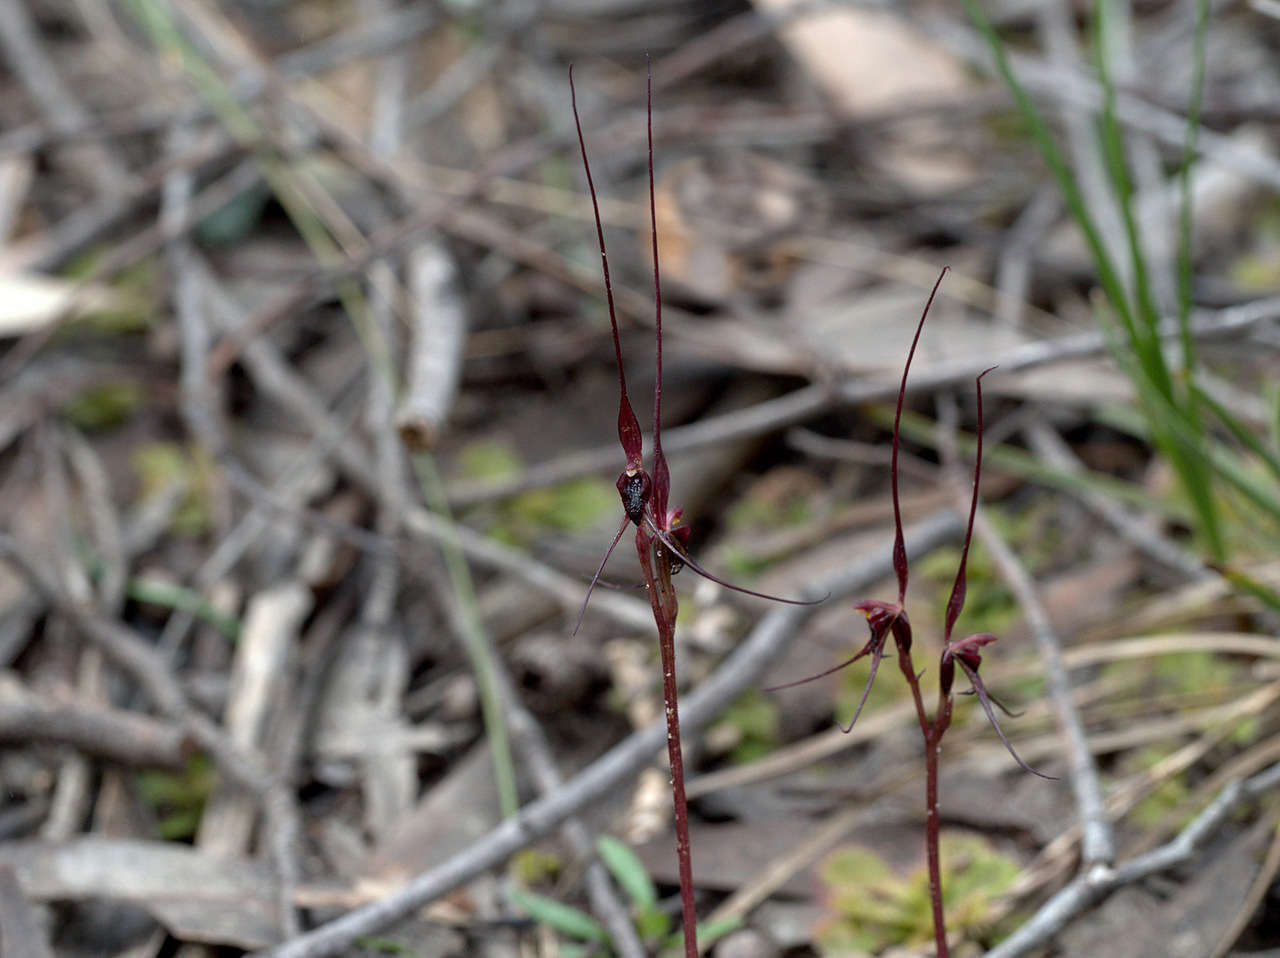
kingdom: Plantae
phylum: Tracheophyta
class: Liliopsida
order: Asparagales
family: Orchidaceae
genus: Acianthus
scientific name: Acianthus caudatus
